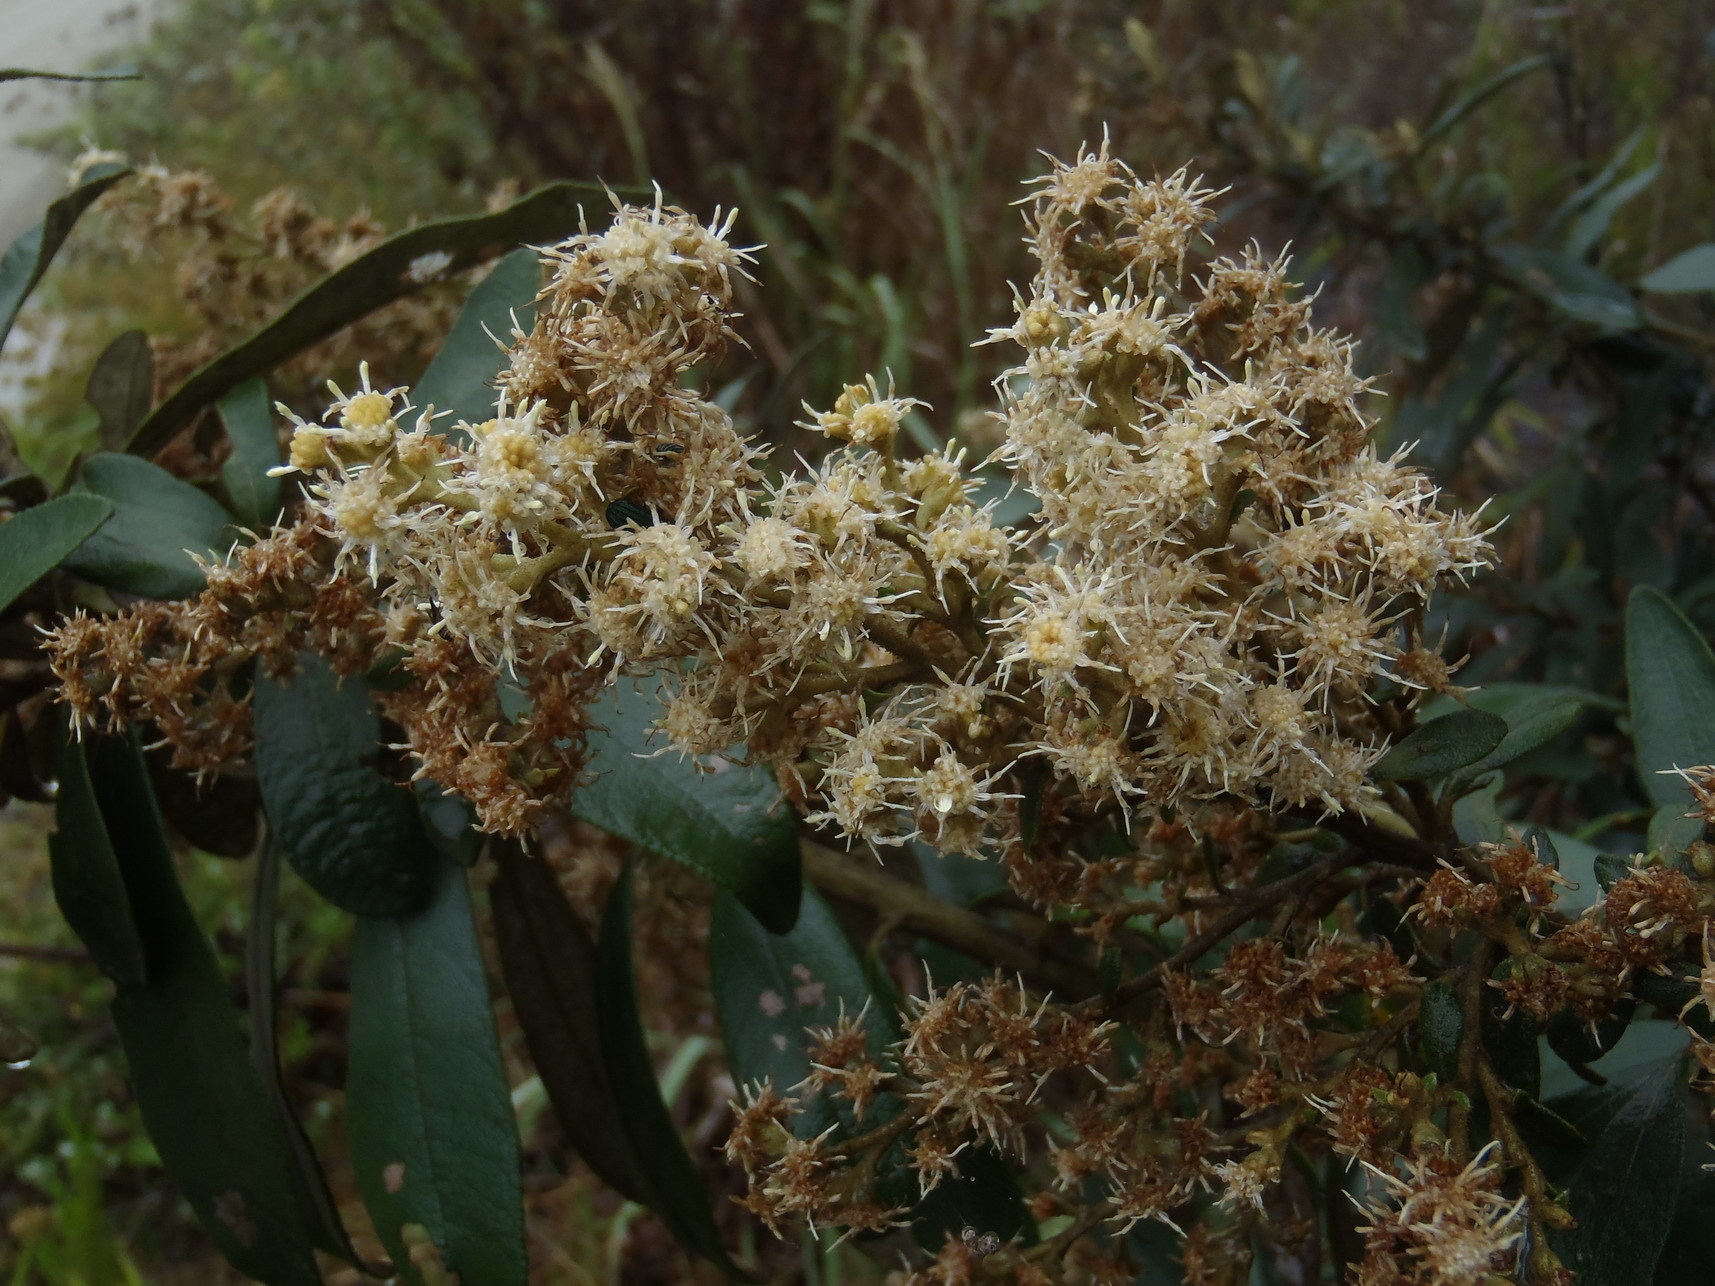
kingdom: Plantae
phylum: Tracheophyta
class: Magnoliopsida
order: Asterales
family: Asteraceae
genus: Tarchonanthus
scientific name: Tarchonanthus littoralis
